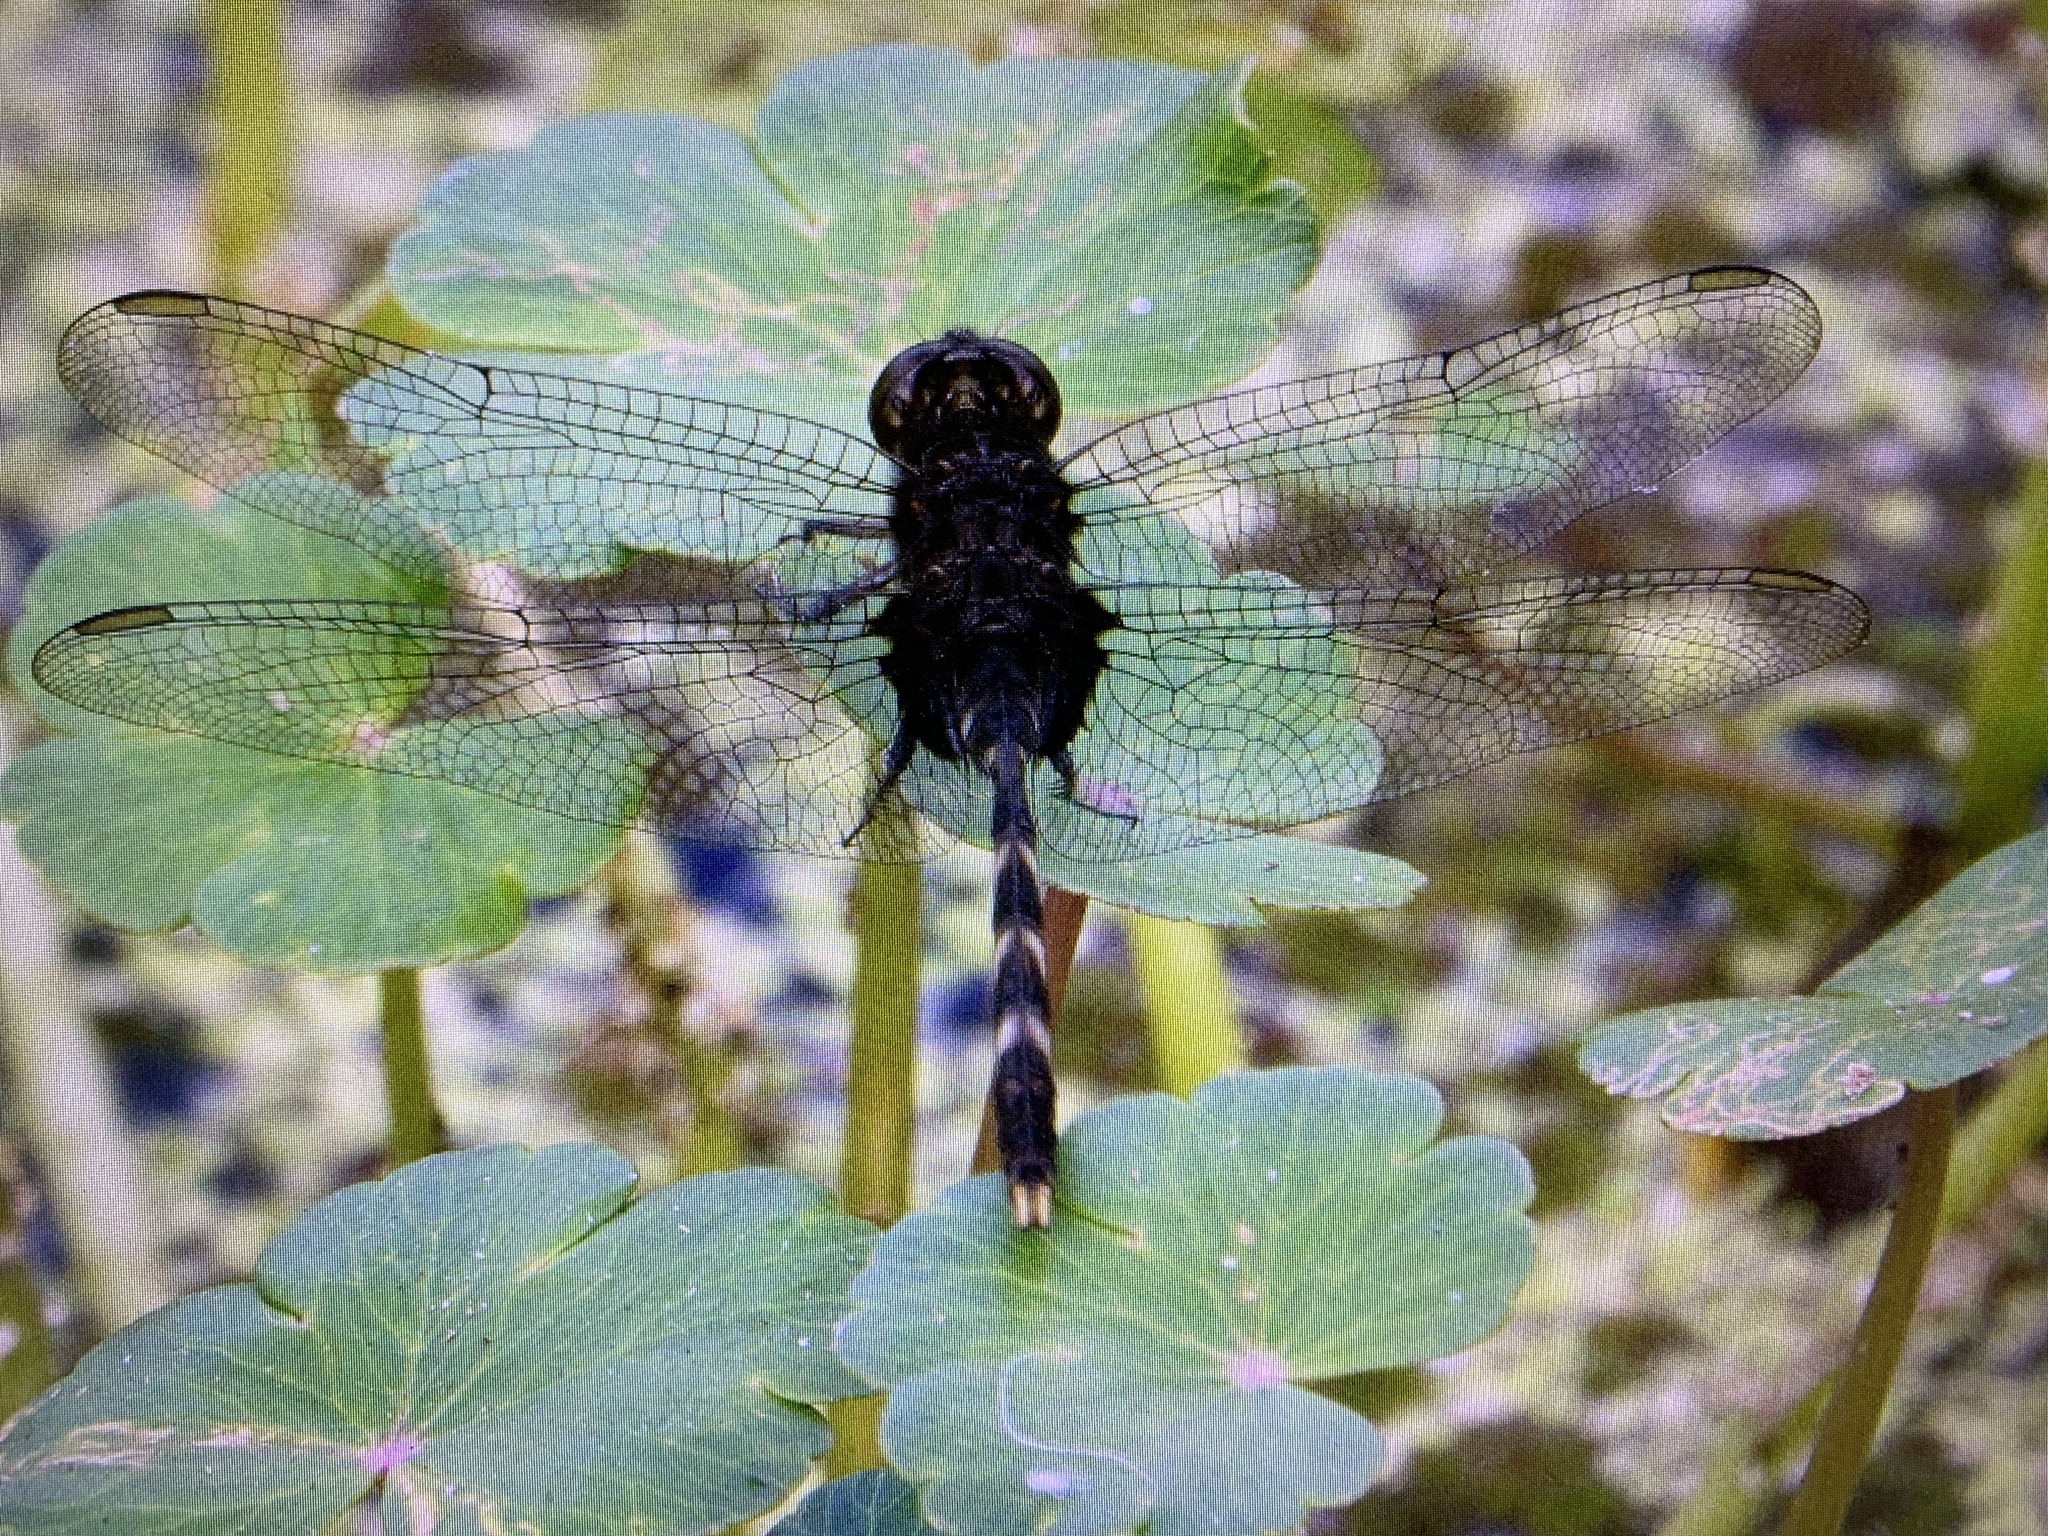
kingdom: Animalia
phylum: Arthropoda
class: Insecta
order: Odonata
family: Libellulidae
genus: Erythemis
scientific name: Erythemis plebeja
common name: Pin-tailed pondhawk
